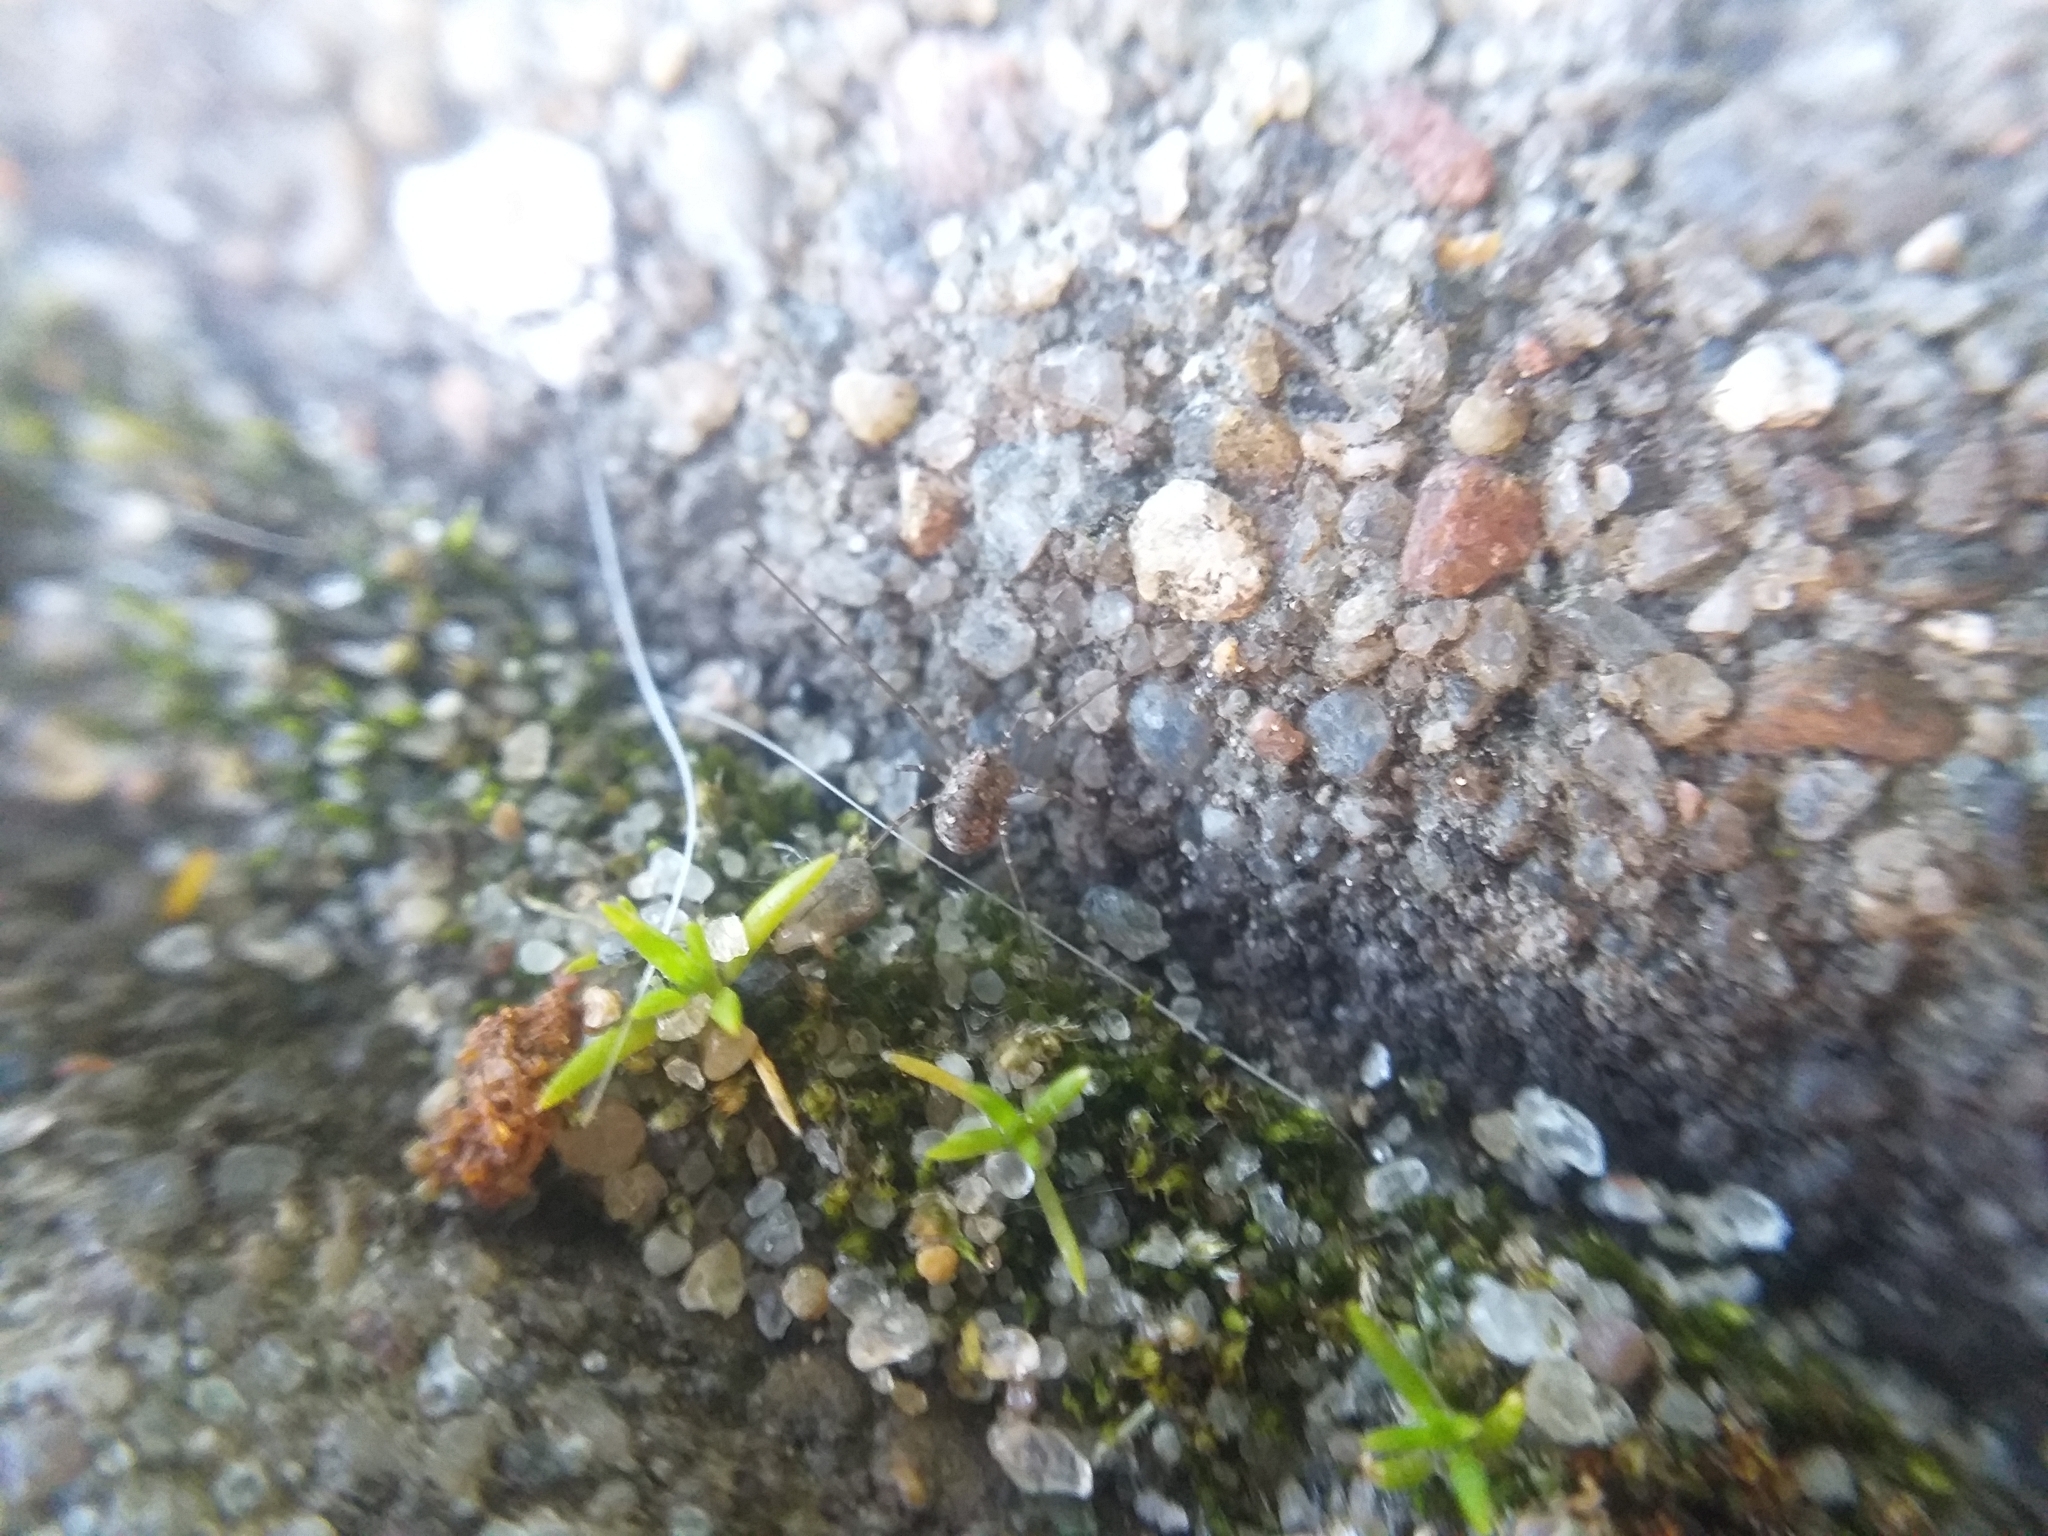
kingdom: Animalia
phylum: Arthropoda
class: Arachnida
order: Opiliones
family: Phalangiidae
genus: Phalangium
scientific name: Phalangium opilio
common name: Daddy longleg
